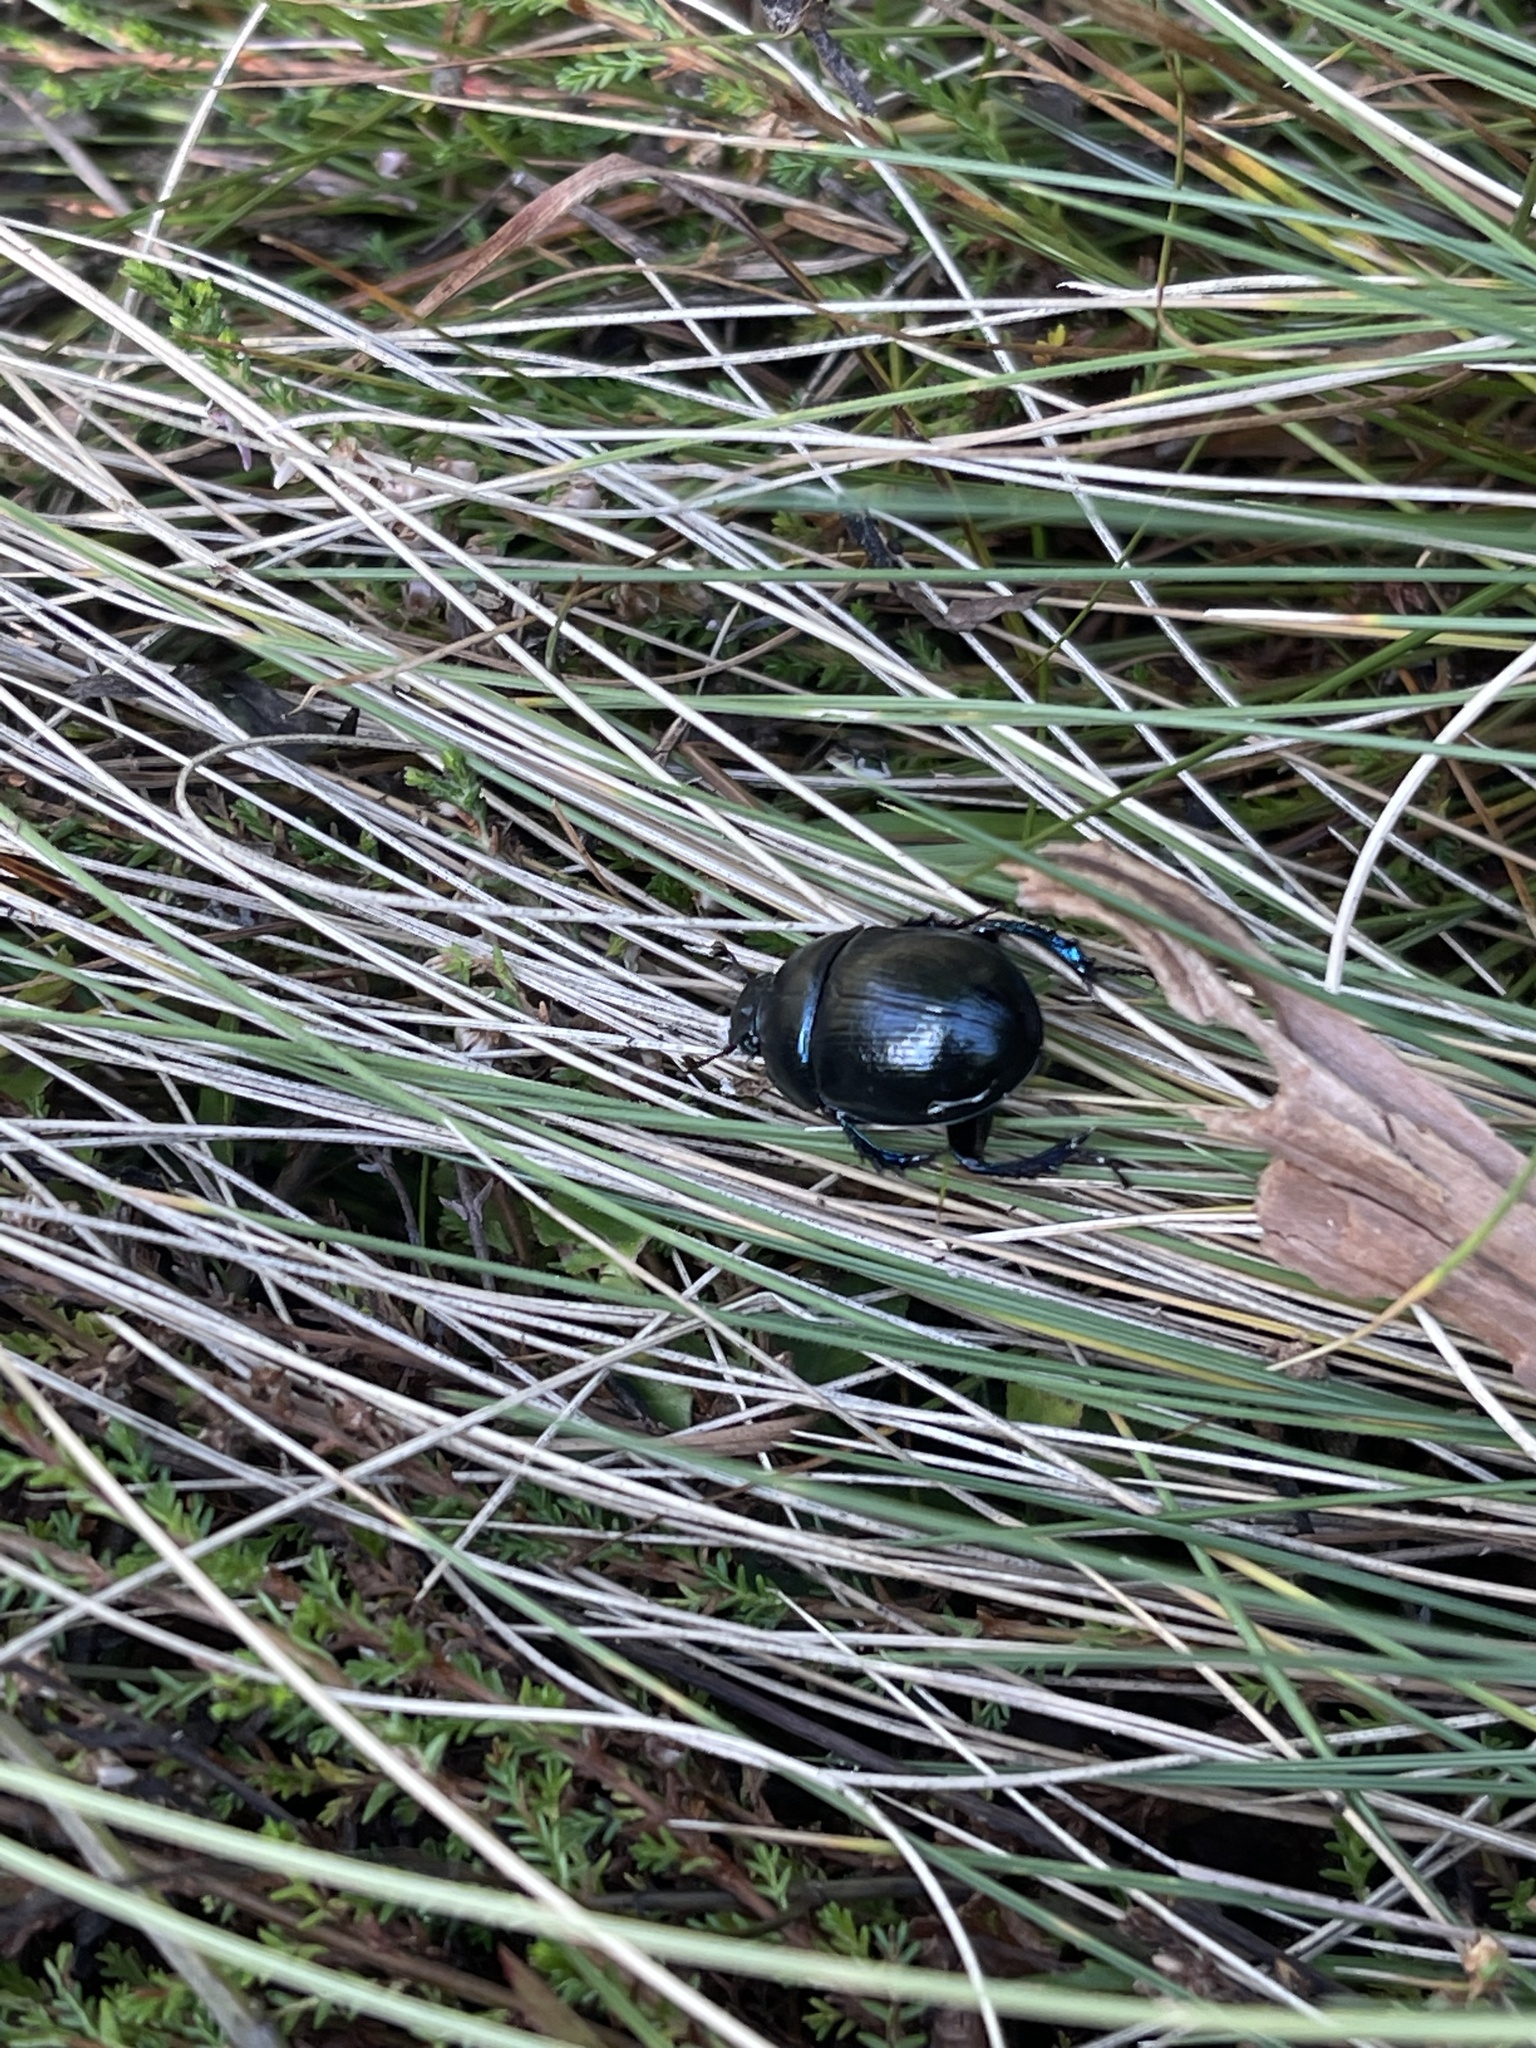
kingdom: Animalia
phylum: Arthropoda
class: Insecta
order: Coleoptera
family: Geotrupidae
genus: Anoplotrupes
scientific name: Anoplotrupes stercorosus
